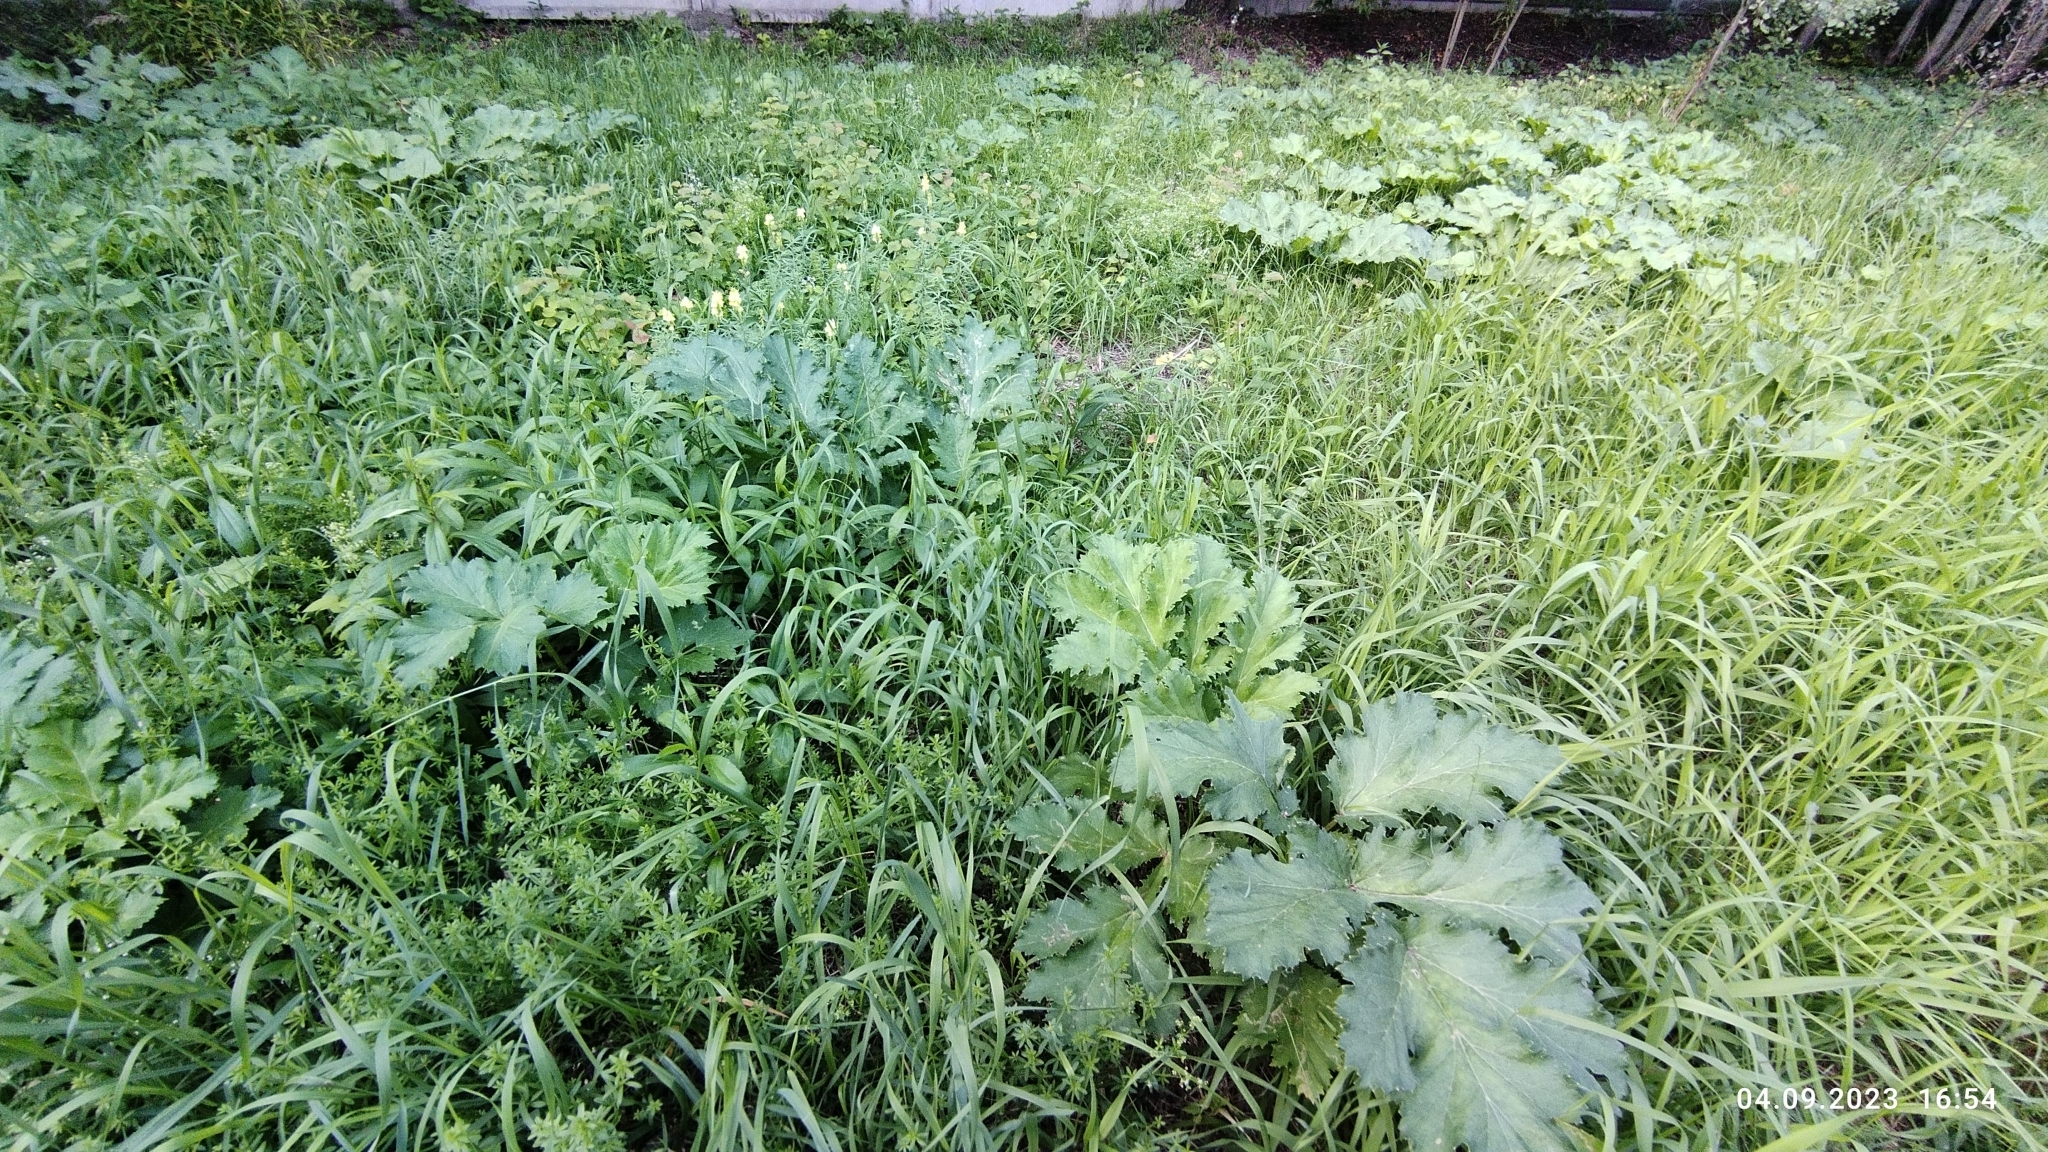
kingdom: Plantae
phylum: Tracheophyta
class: Magnoliopsida
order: Apiales
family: Apiaceae
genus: Heracleum
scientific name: Heracleum sosnowskyi
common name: Sosnowsky's hogweed
